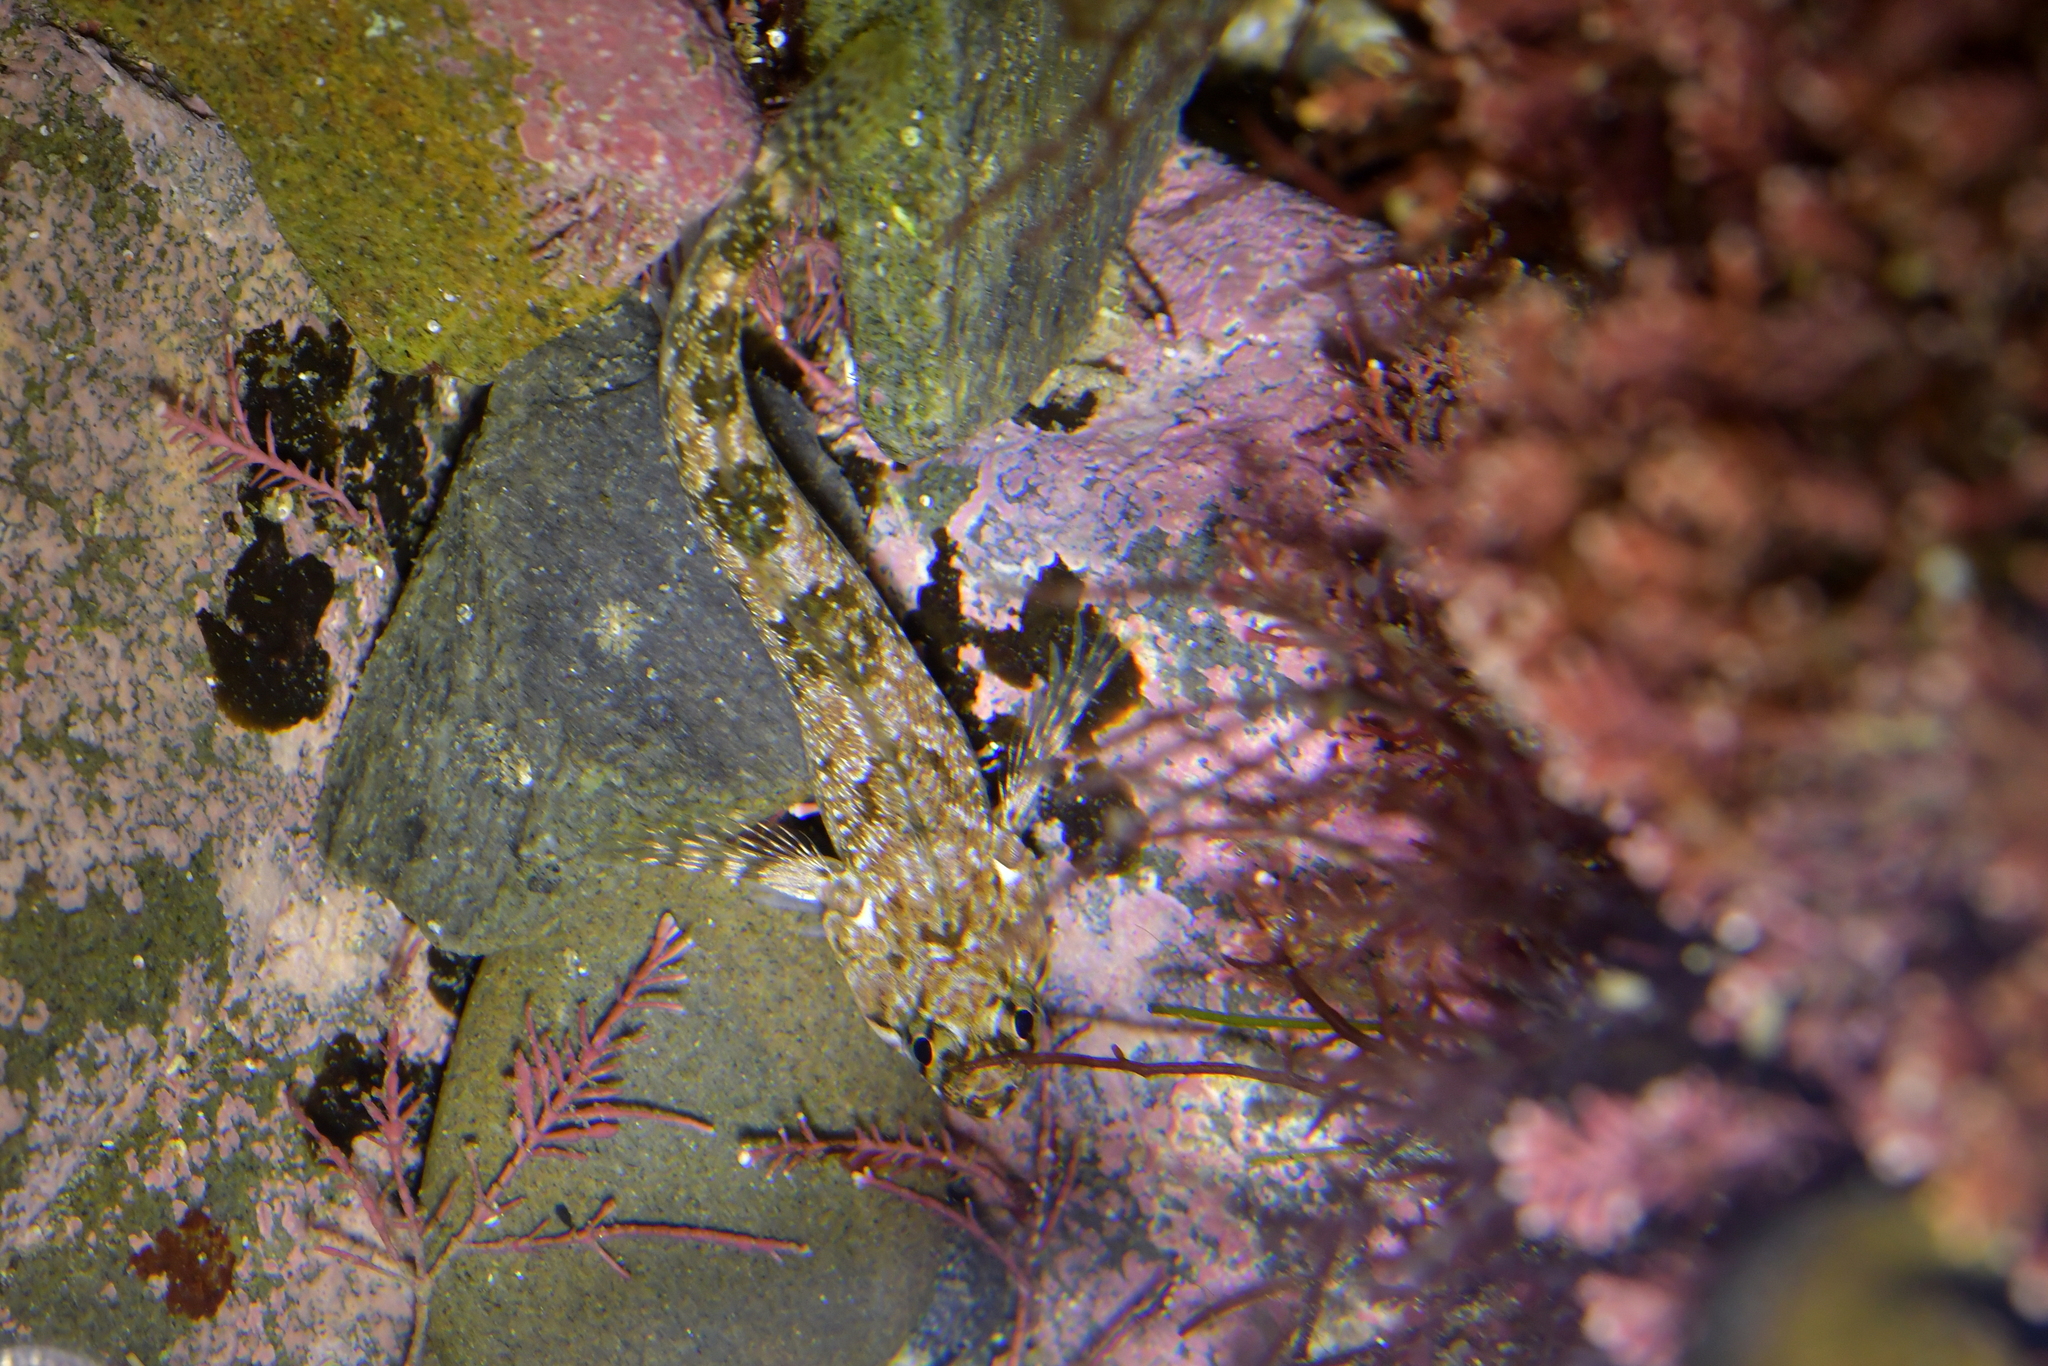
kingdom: Animalia
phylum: Chordata
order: Perciformes
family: Tripterygiidae
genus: Bellapiscis
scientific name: Bellapiscis medius
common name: Twister
